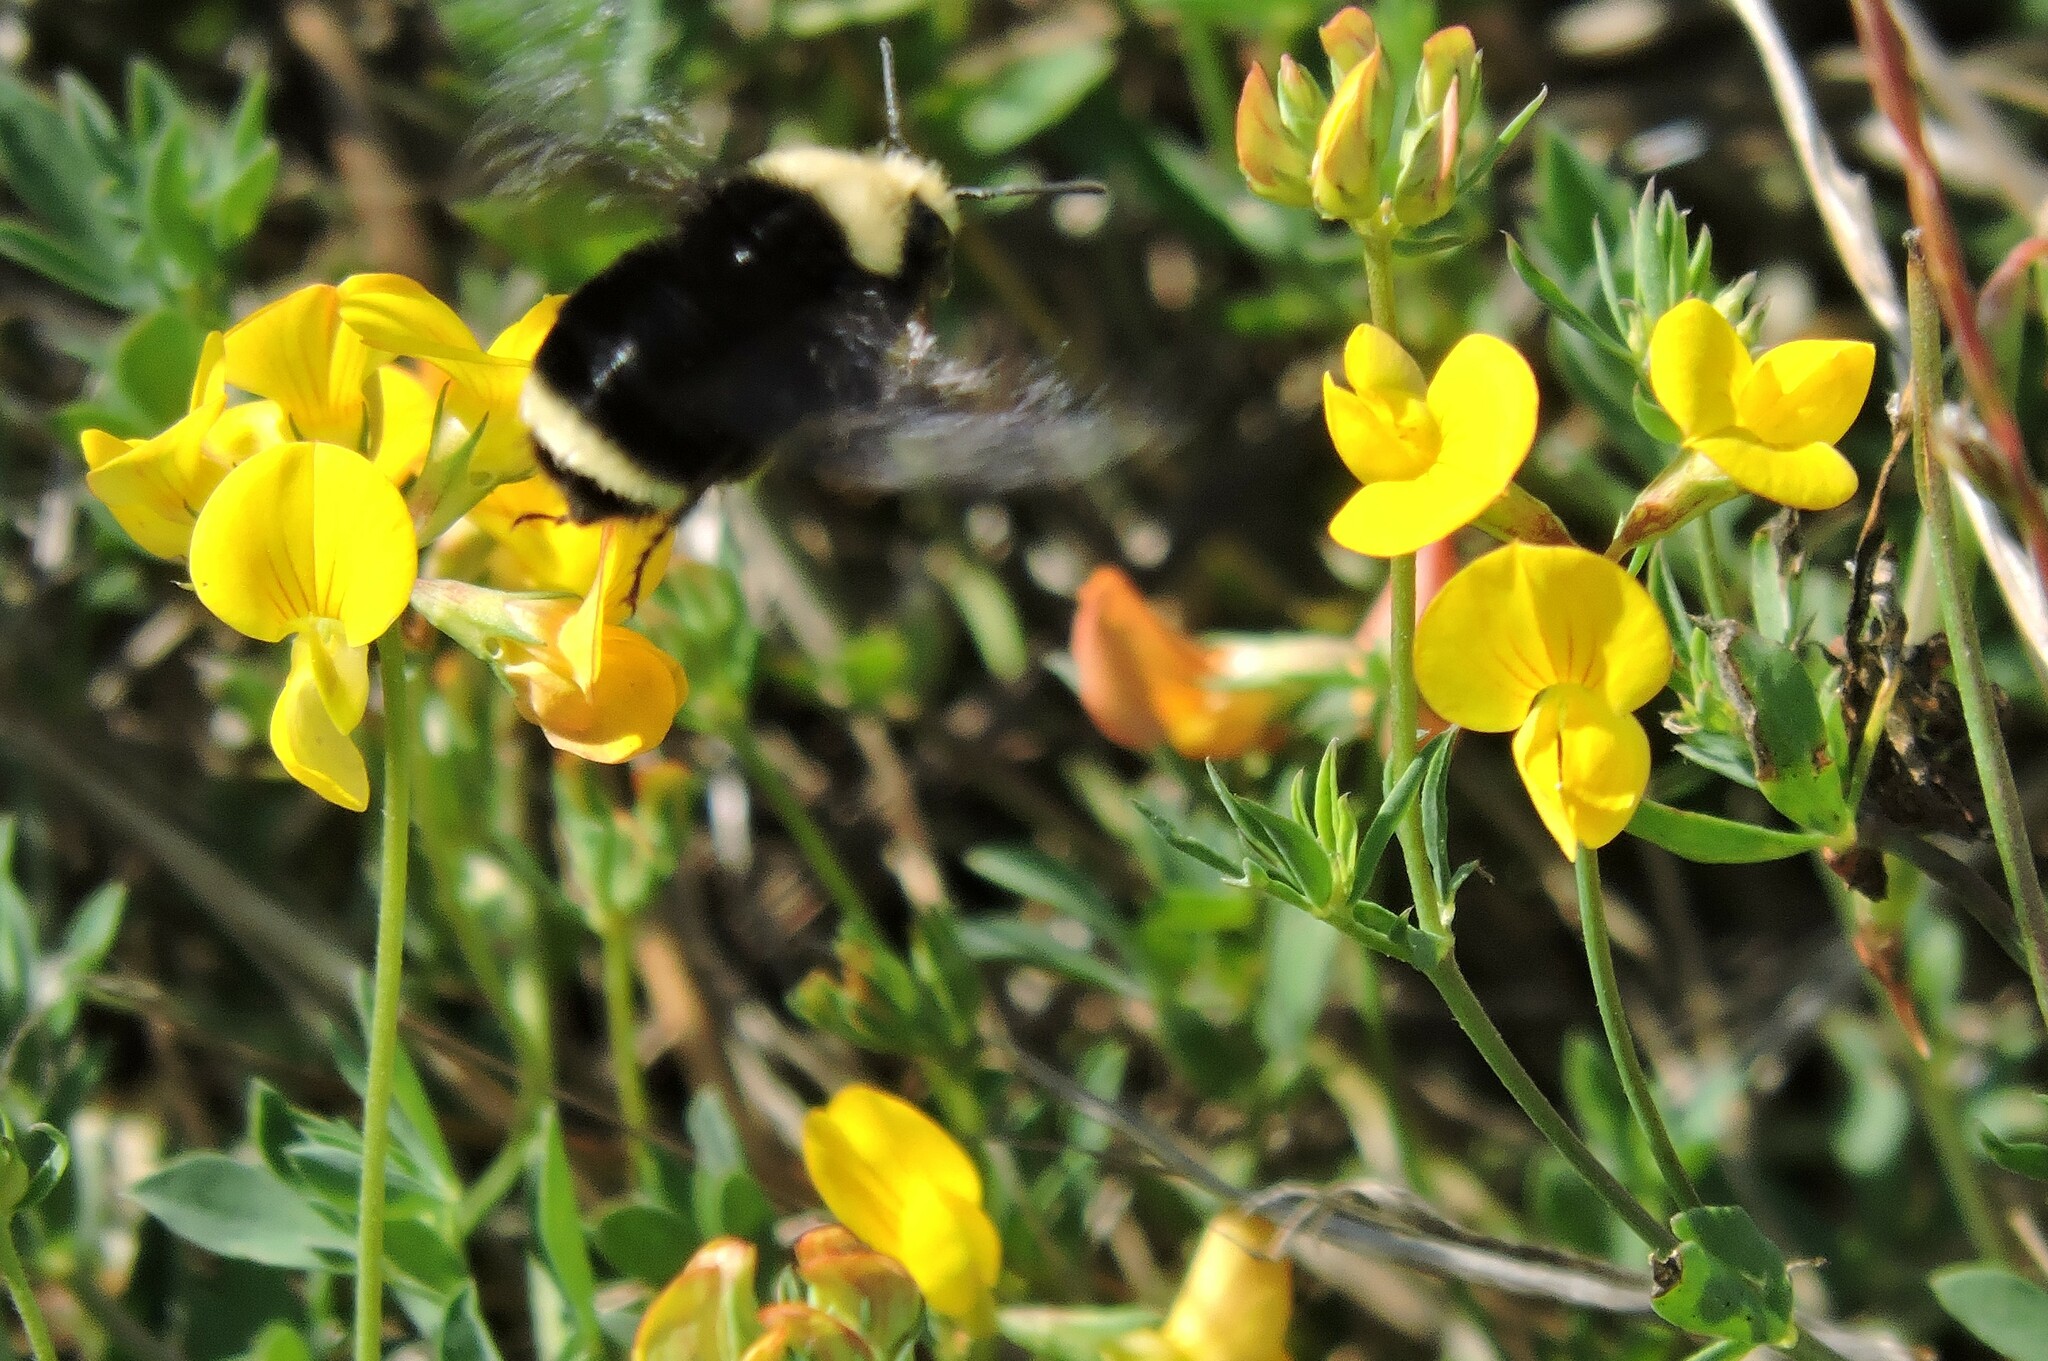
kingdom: Animalia
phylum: Arthropoda
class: Insecta
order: Hymenoptera
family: Apidae
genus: Bombus
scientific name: Bombus vosnesenskii
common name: Vosnesensky bumble bee
